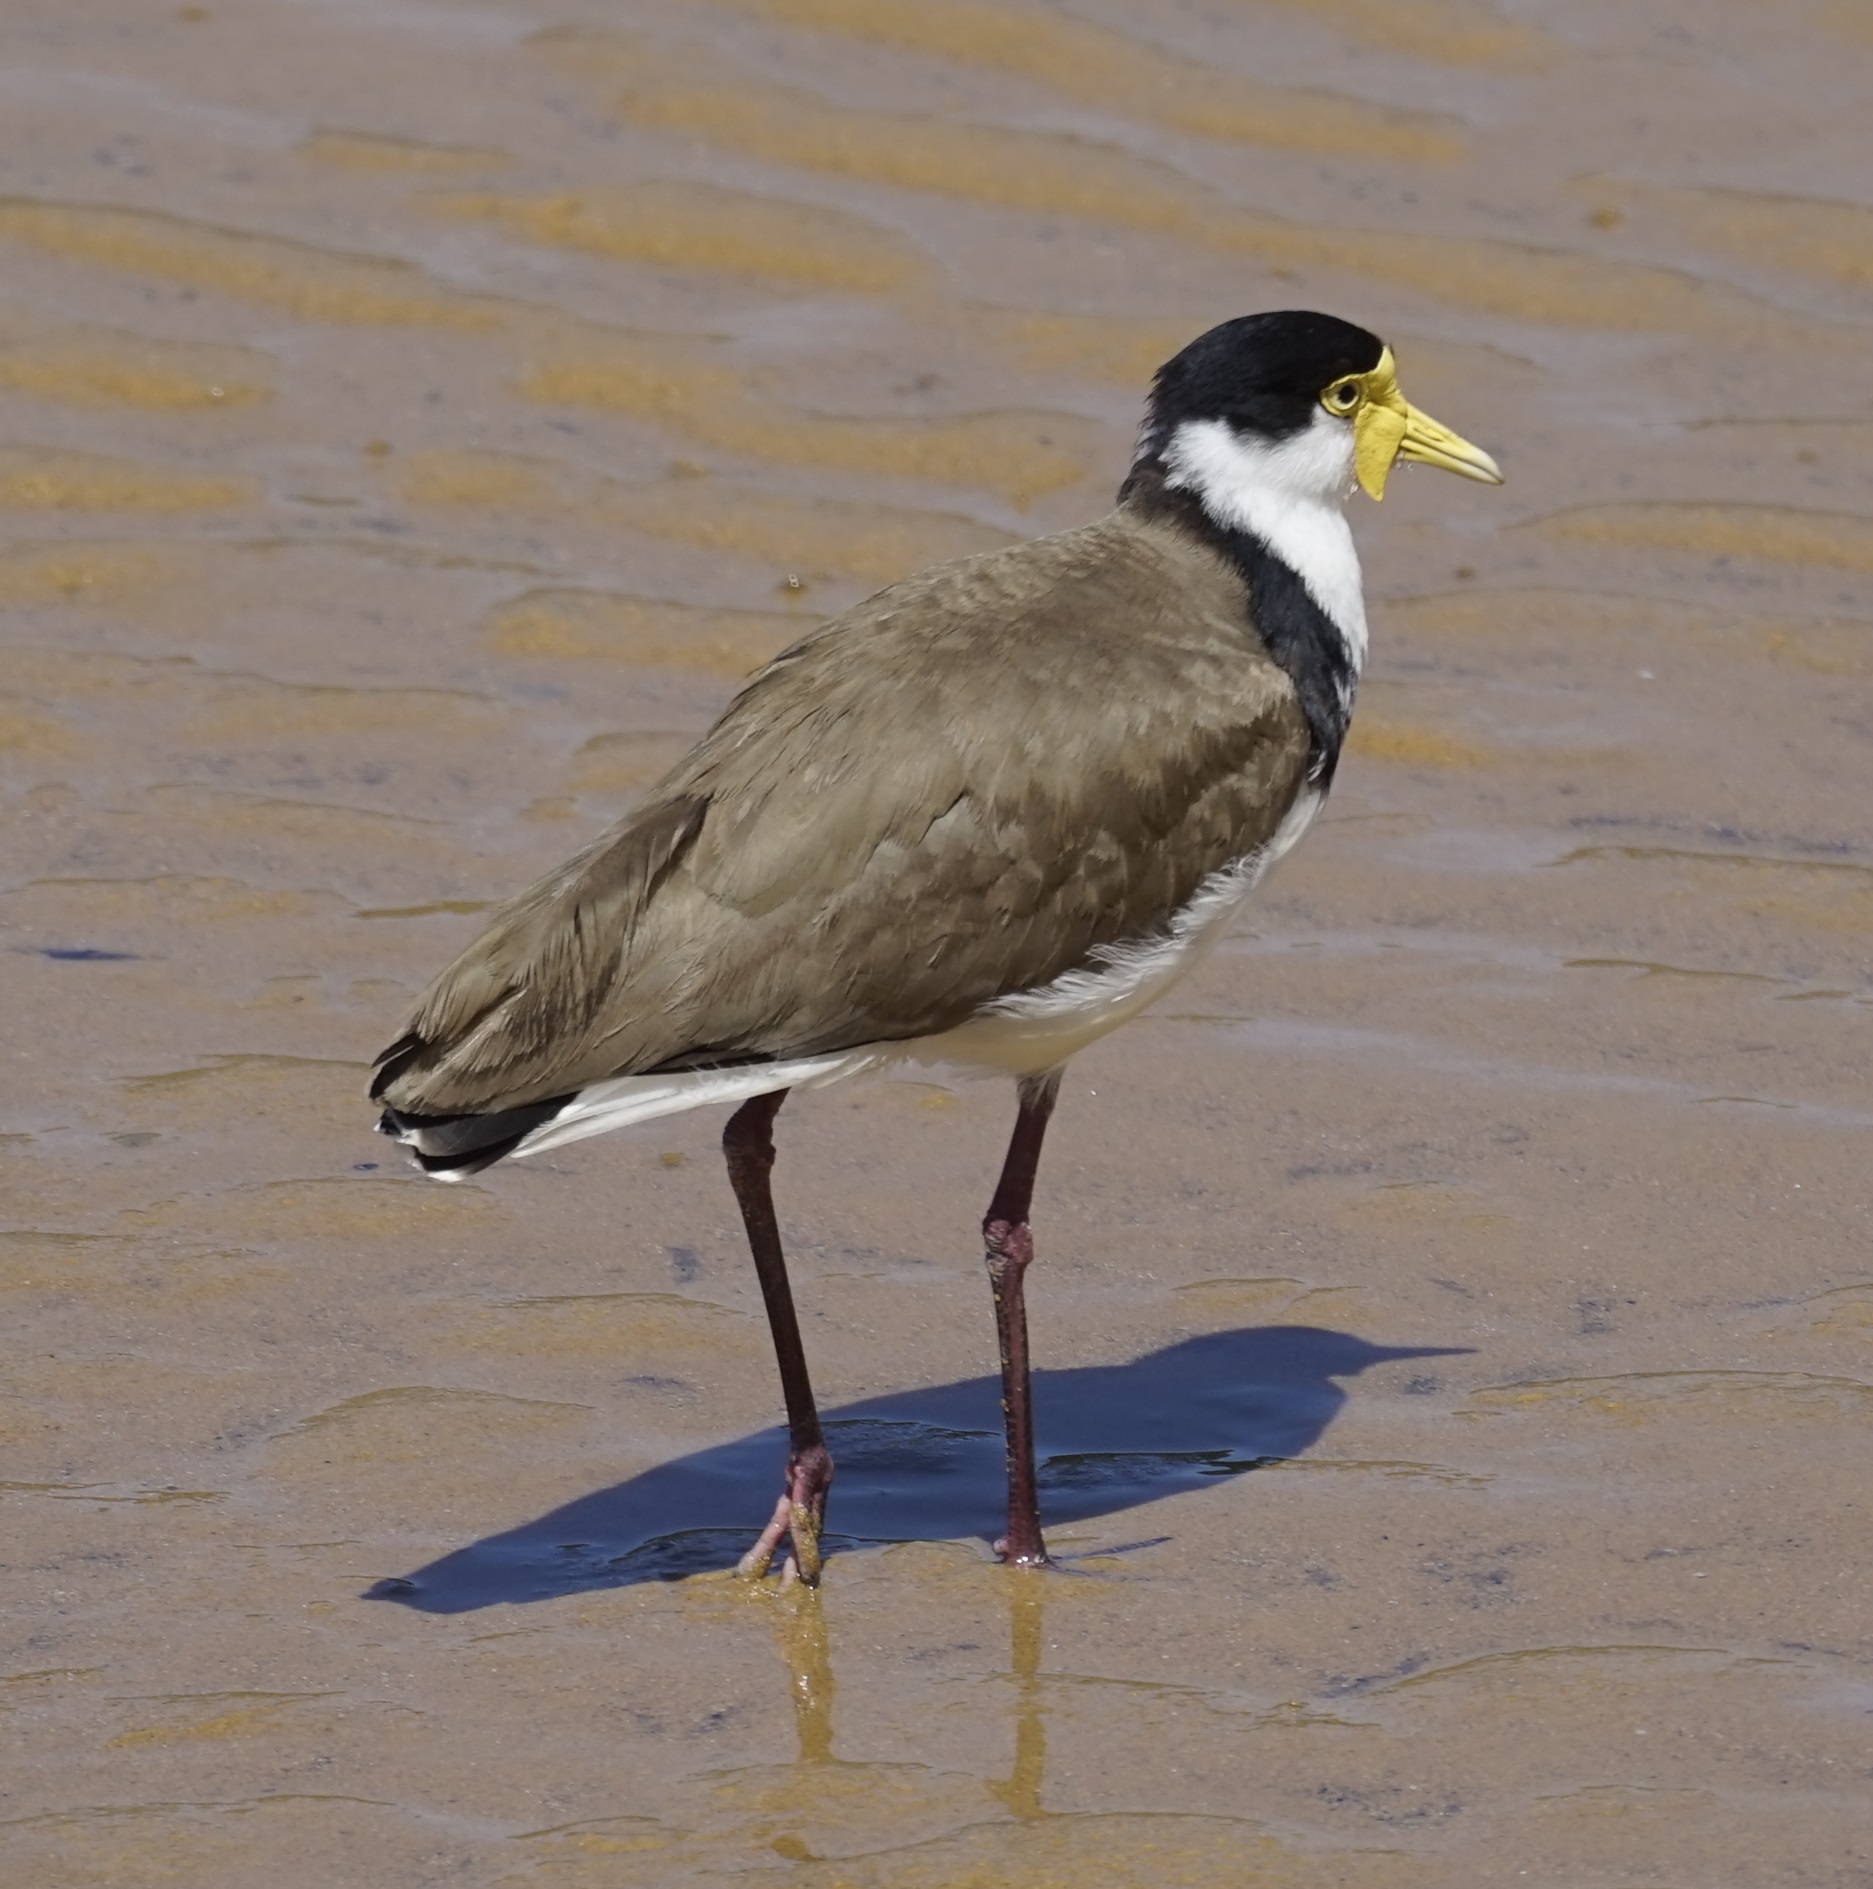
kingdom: Animalia
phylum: Chordata
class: Aves
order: Charadriiformes
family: Charadriidae
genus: Vanellus
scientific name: Vanellus miles
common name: Masked lapwing
